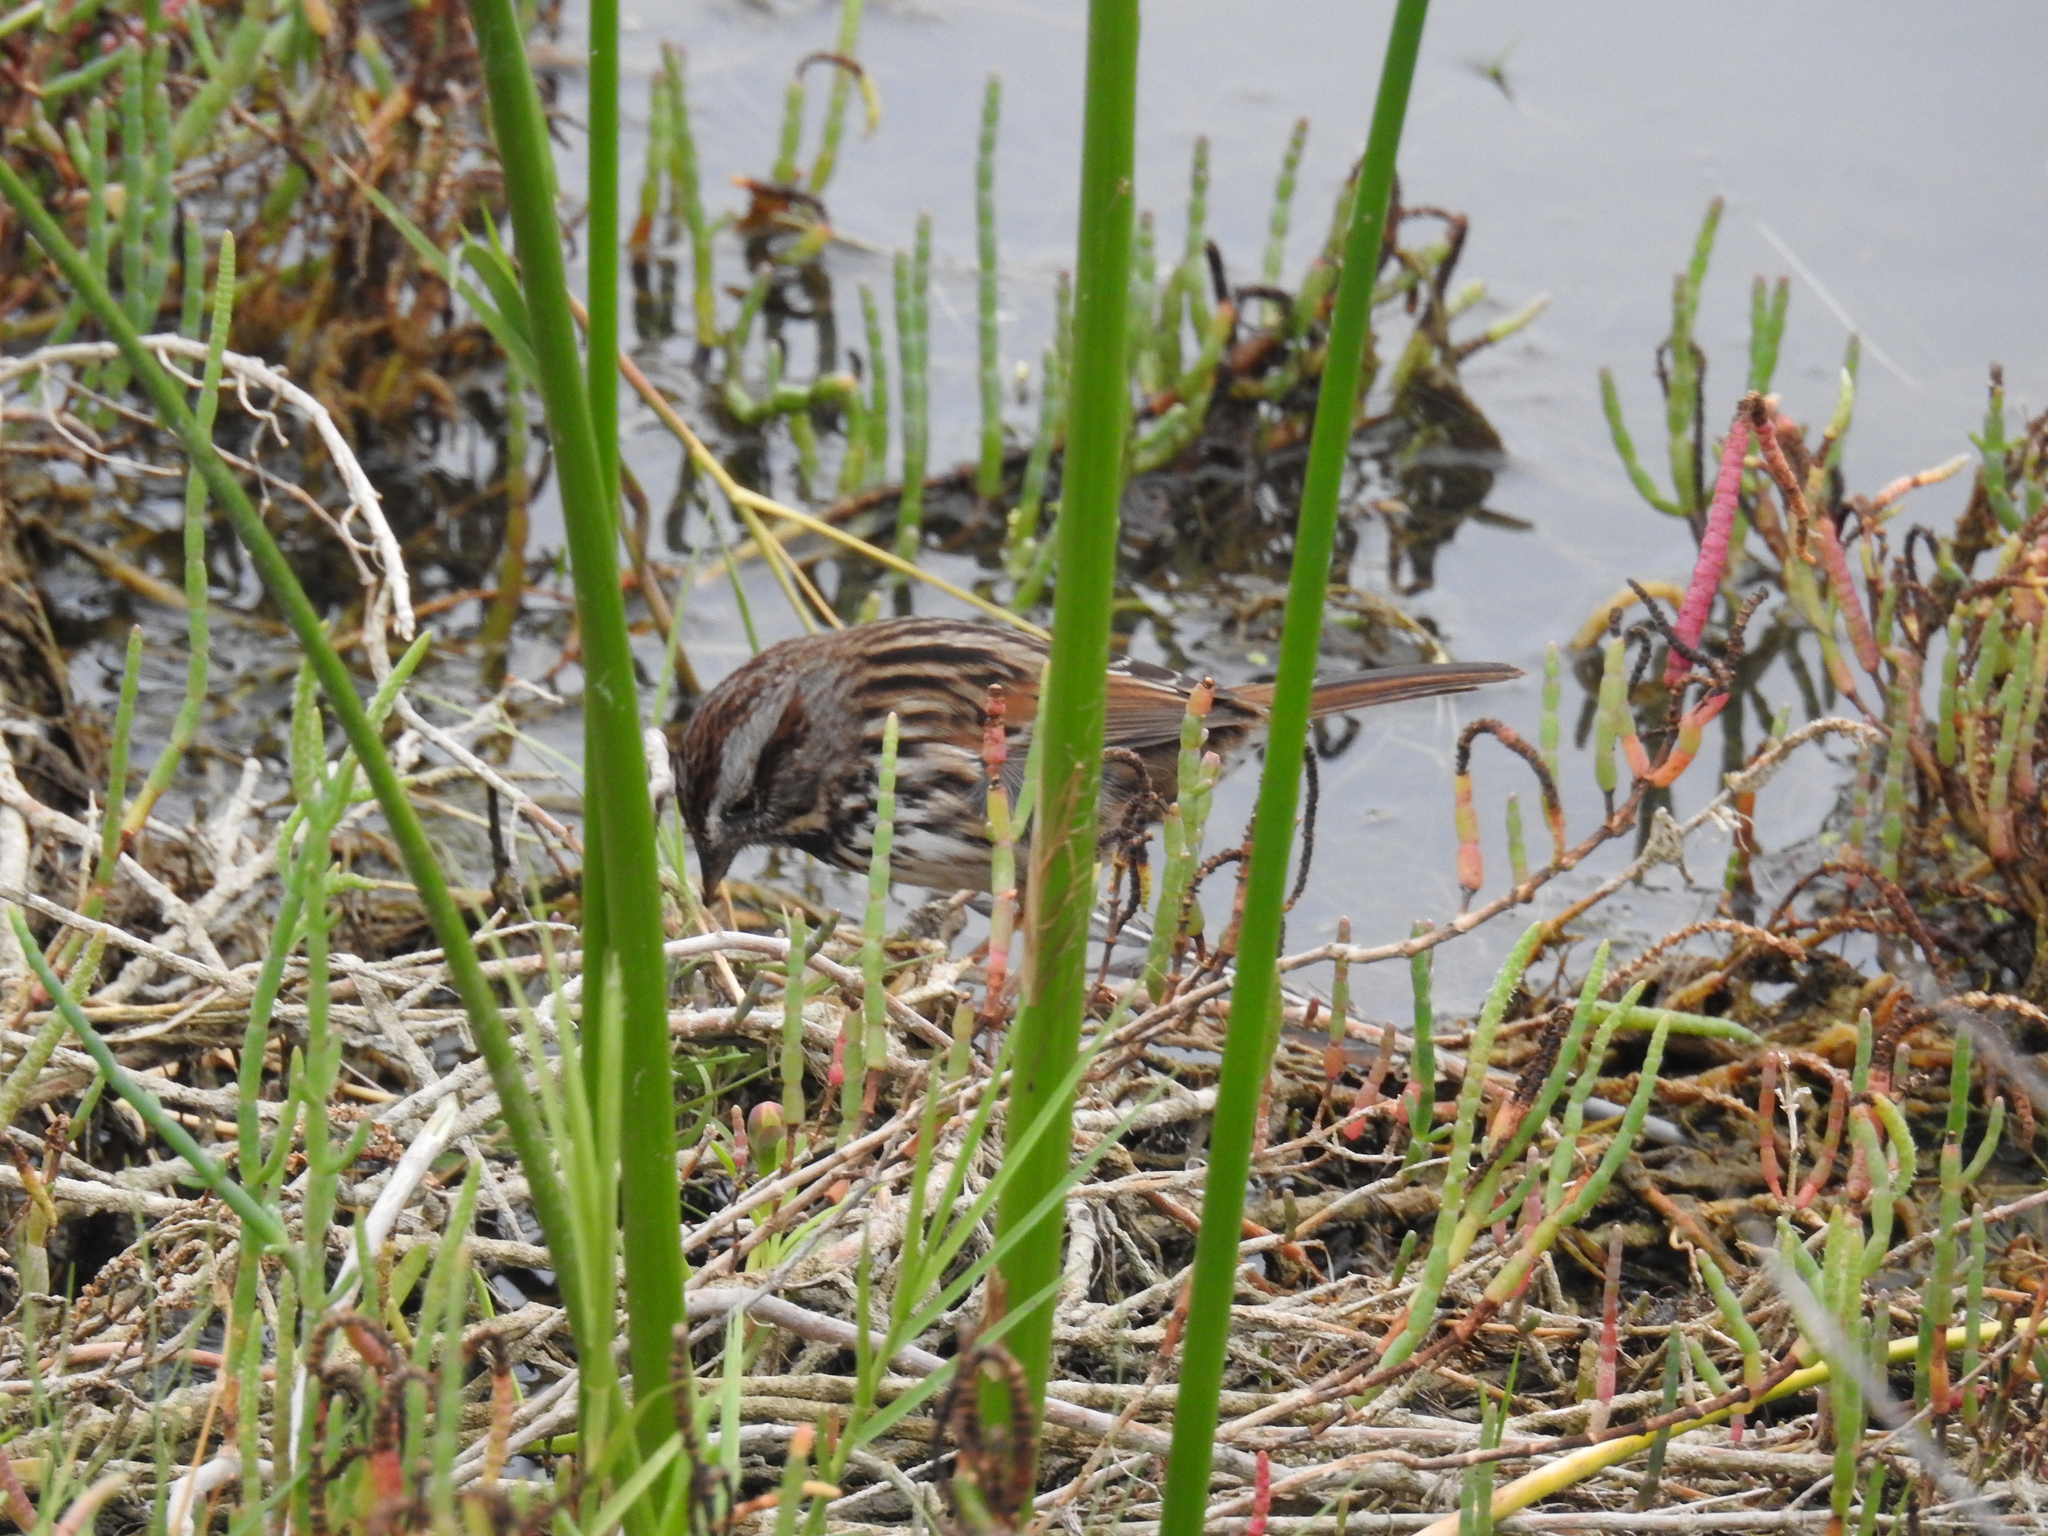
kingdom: Animalia
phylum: Chordata
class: Aves
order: Passeriformes
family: Passerellidae
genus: Melospiza
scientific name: Melospiza melodia
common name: Song sparrow
